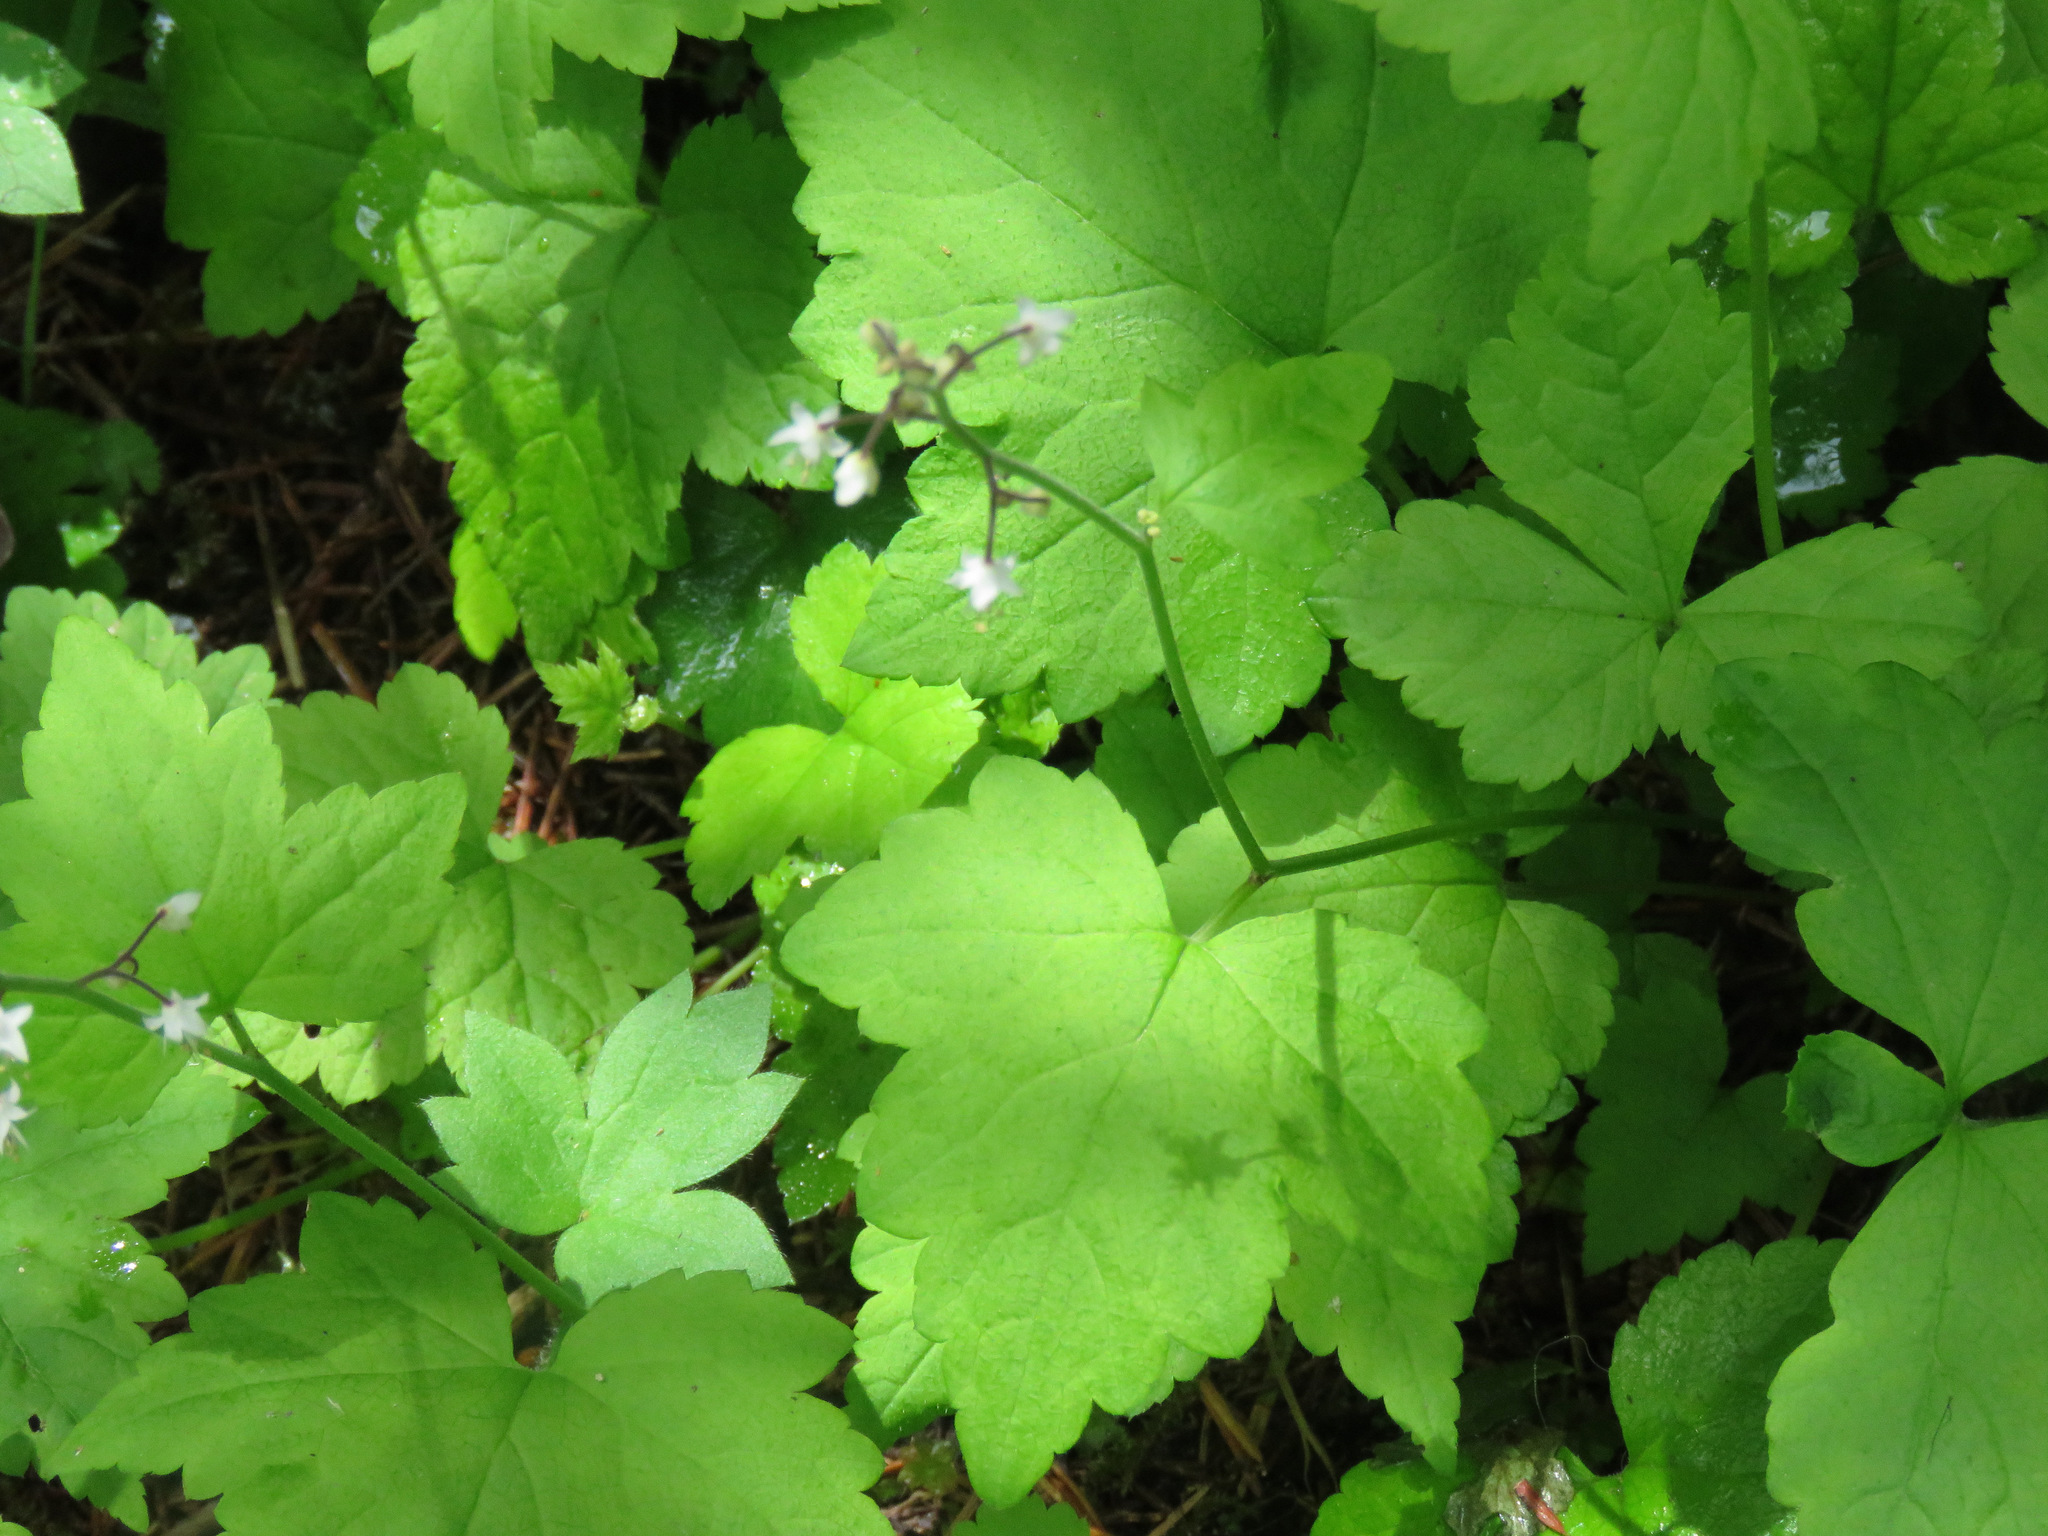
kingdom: Plantae
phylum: Tracheophyta
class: Magnoliopsida
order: Saxifragales
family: Saxifragaceae
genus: Tiarella
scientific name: Tiarella trifoliata
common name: Sugar-scoop
